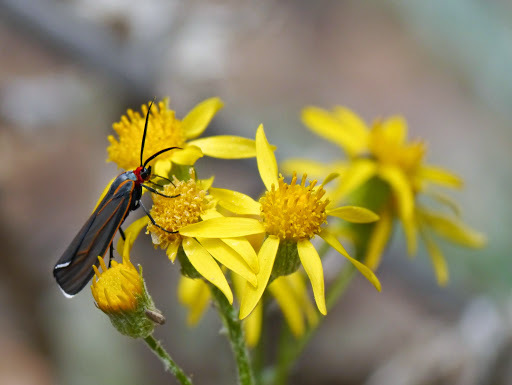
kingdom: Animalia
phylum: Arthropoda
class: Insecta
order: Lepidoptera
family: Erebidae
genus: Ctenucha
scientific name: Ctenucha venosa
